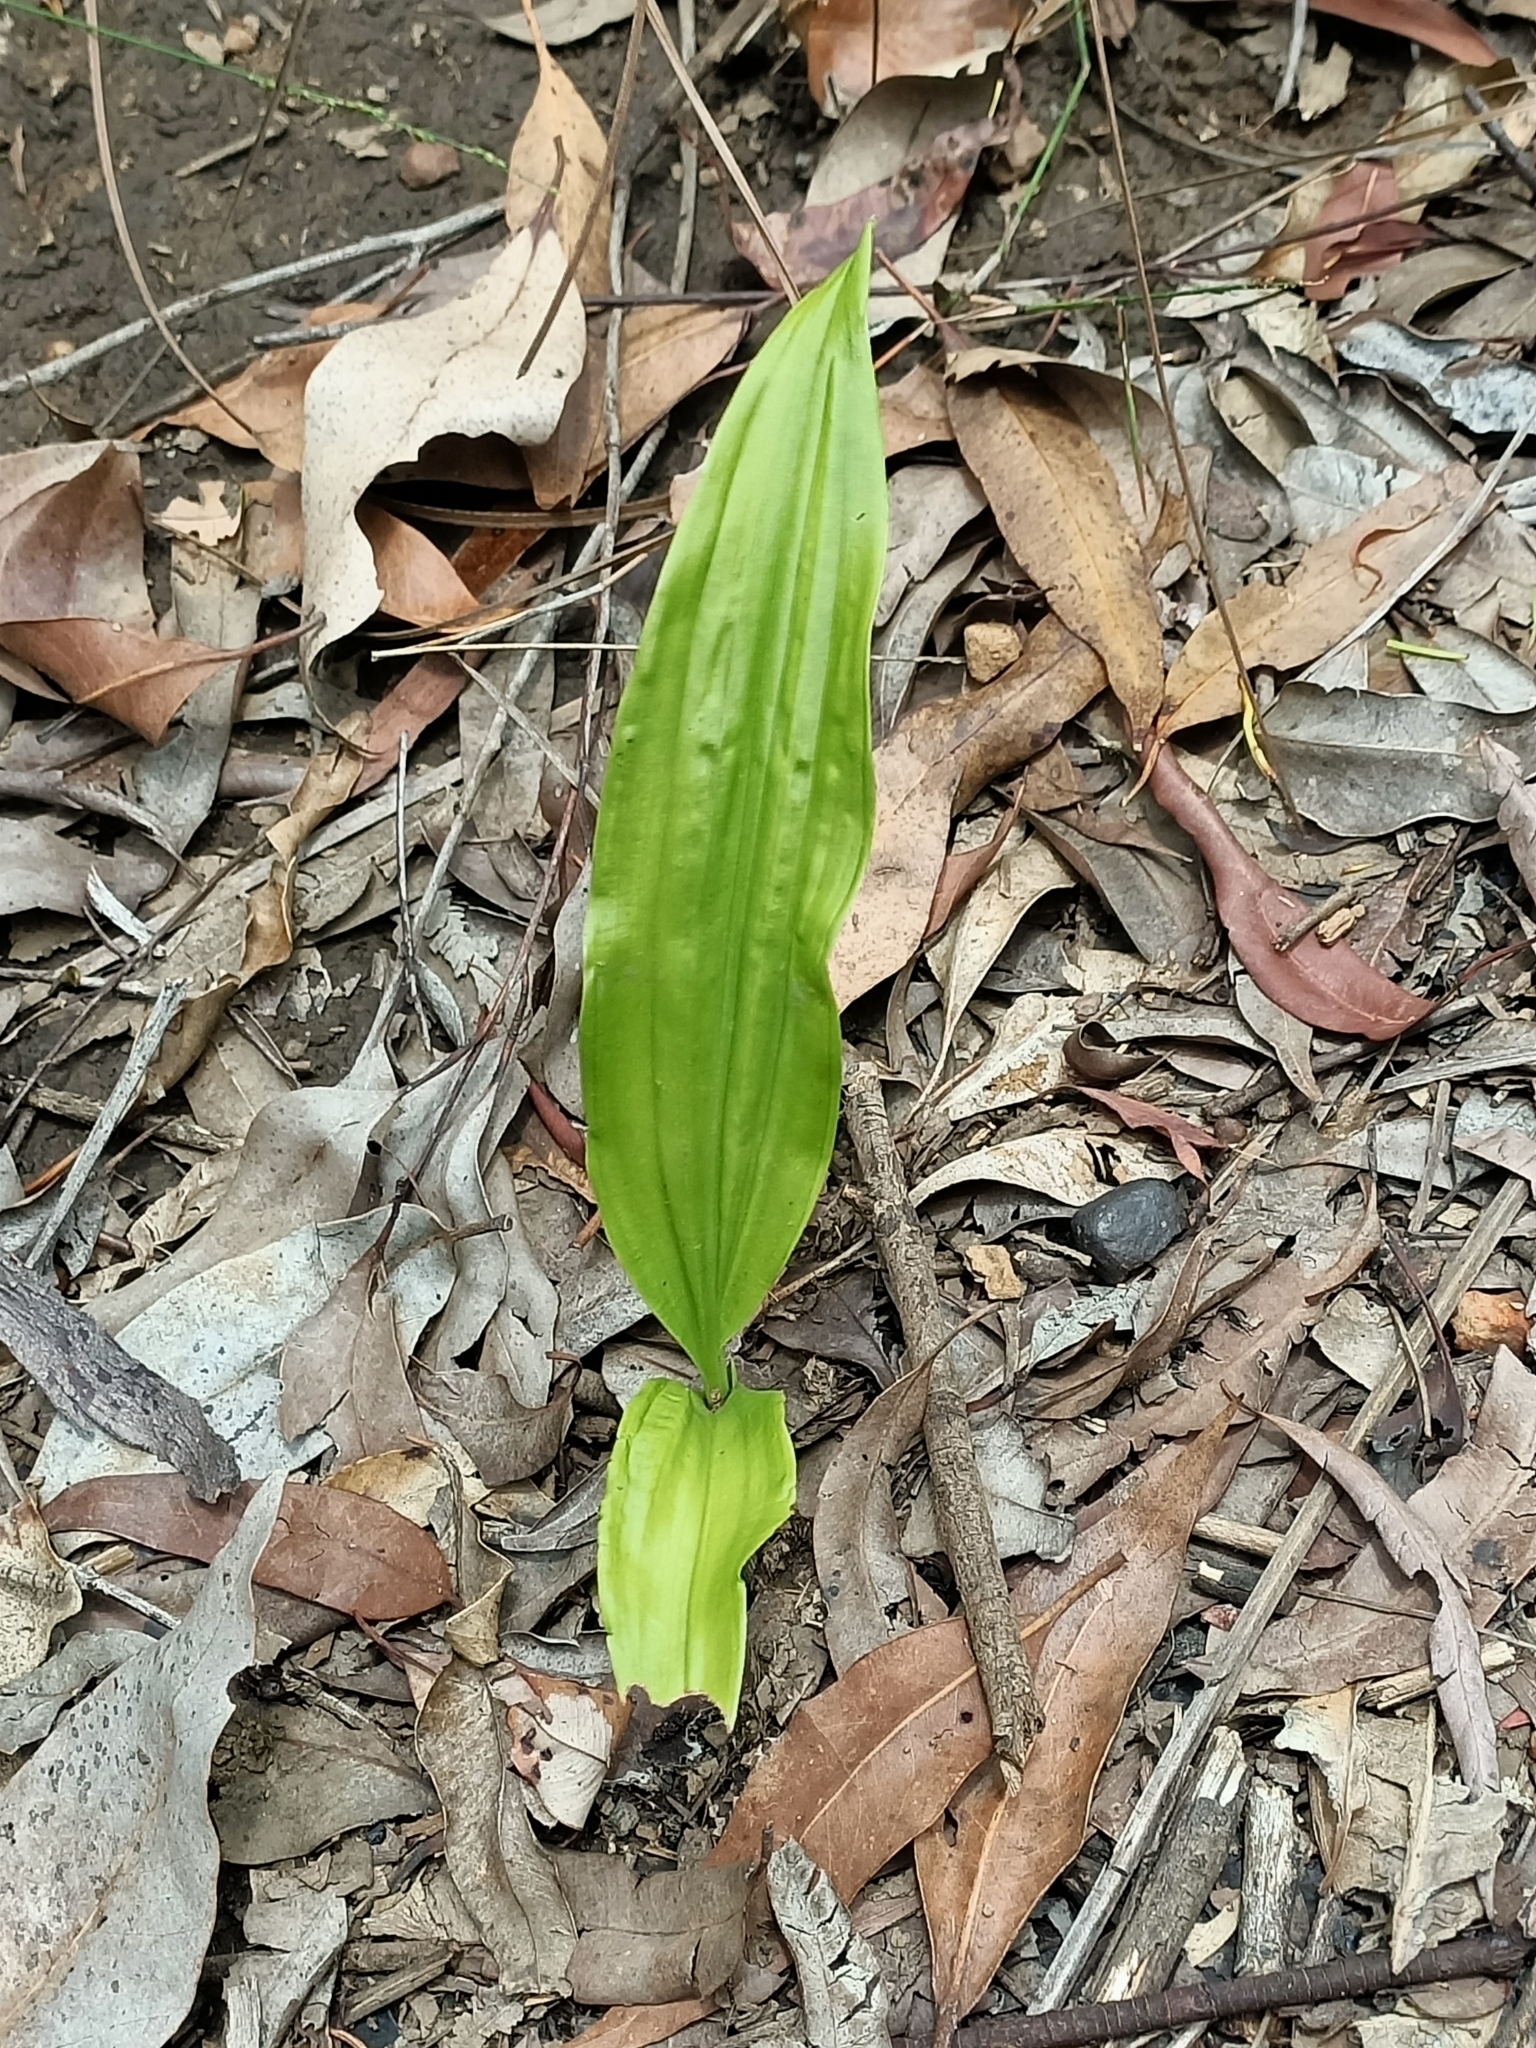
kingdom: Plantae
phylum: Tracheophyta
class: Liliopsida
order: Asparagales
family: Orchidaceae
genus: Eulophia
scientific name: Eulophia cernua
